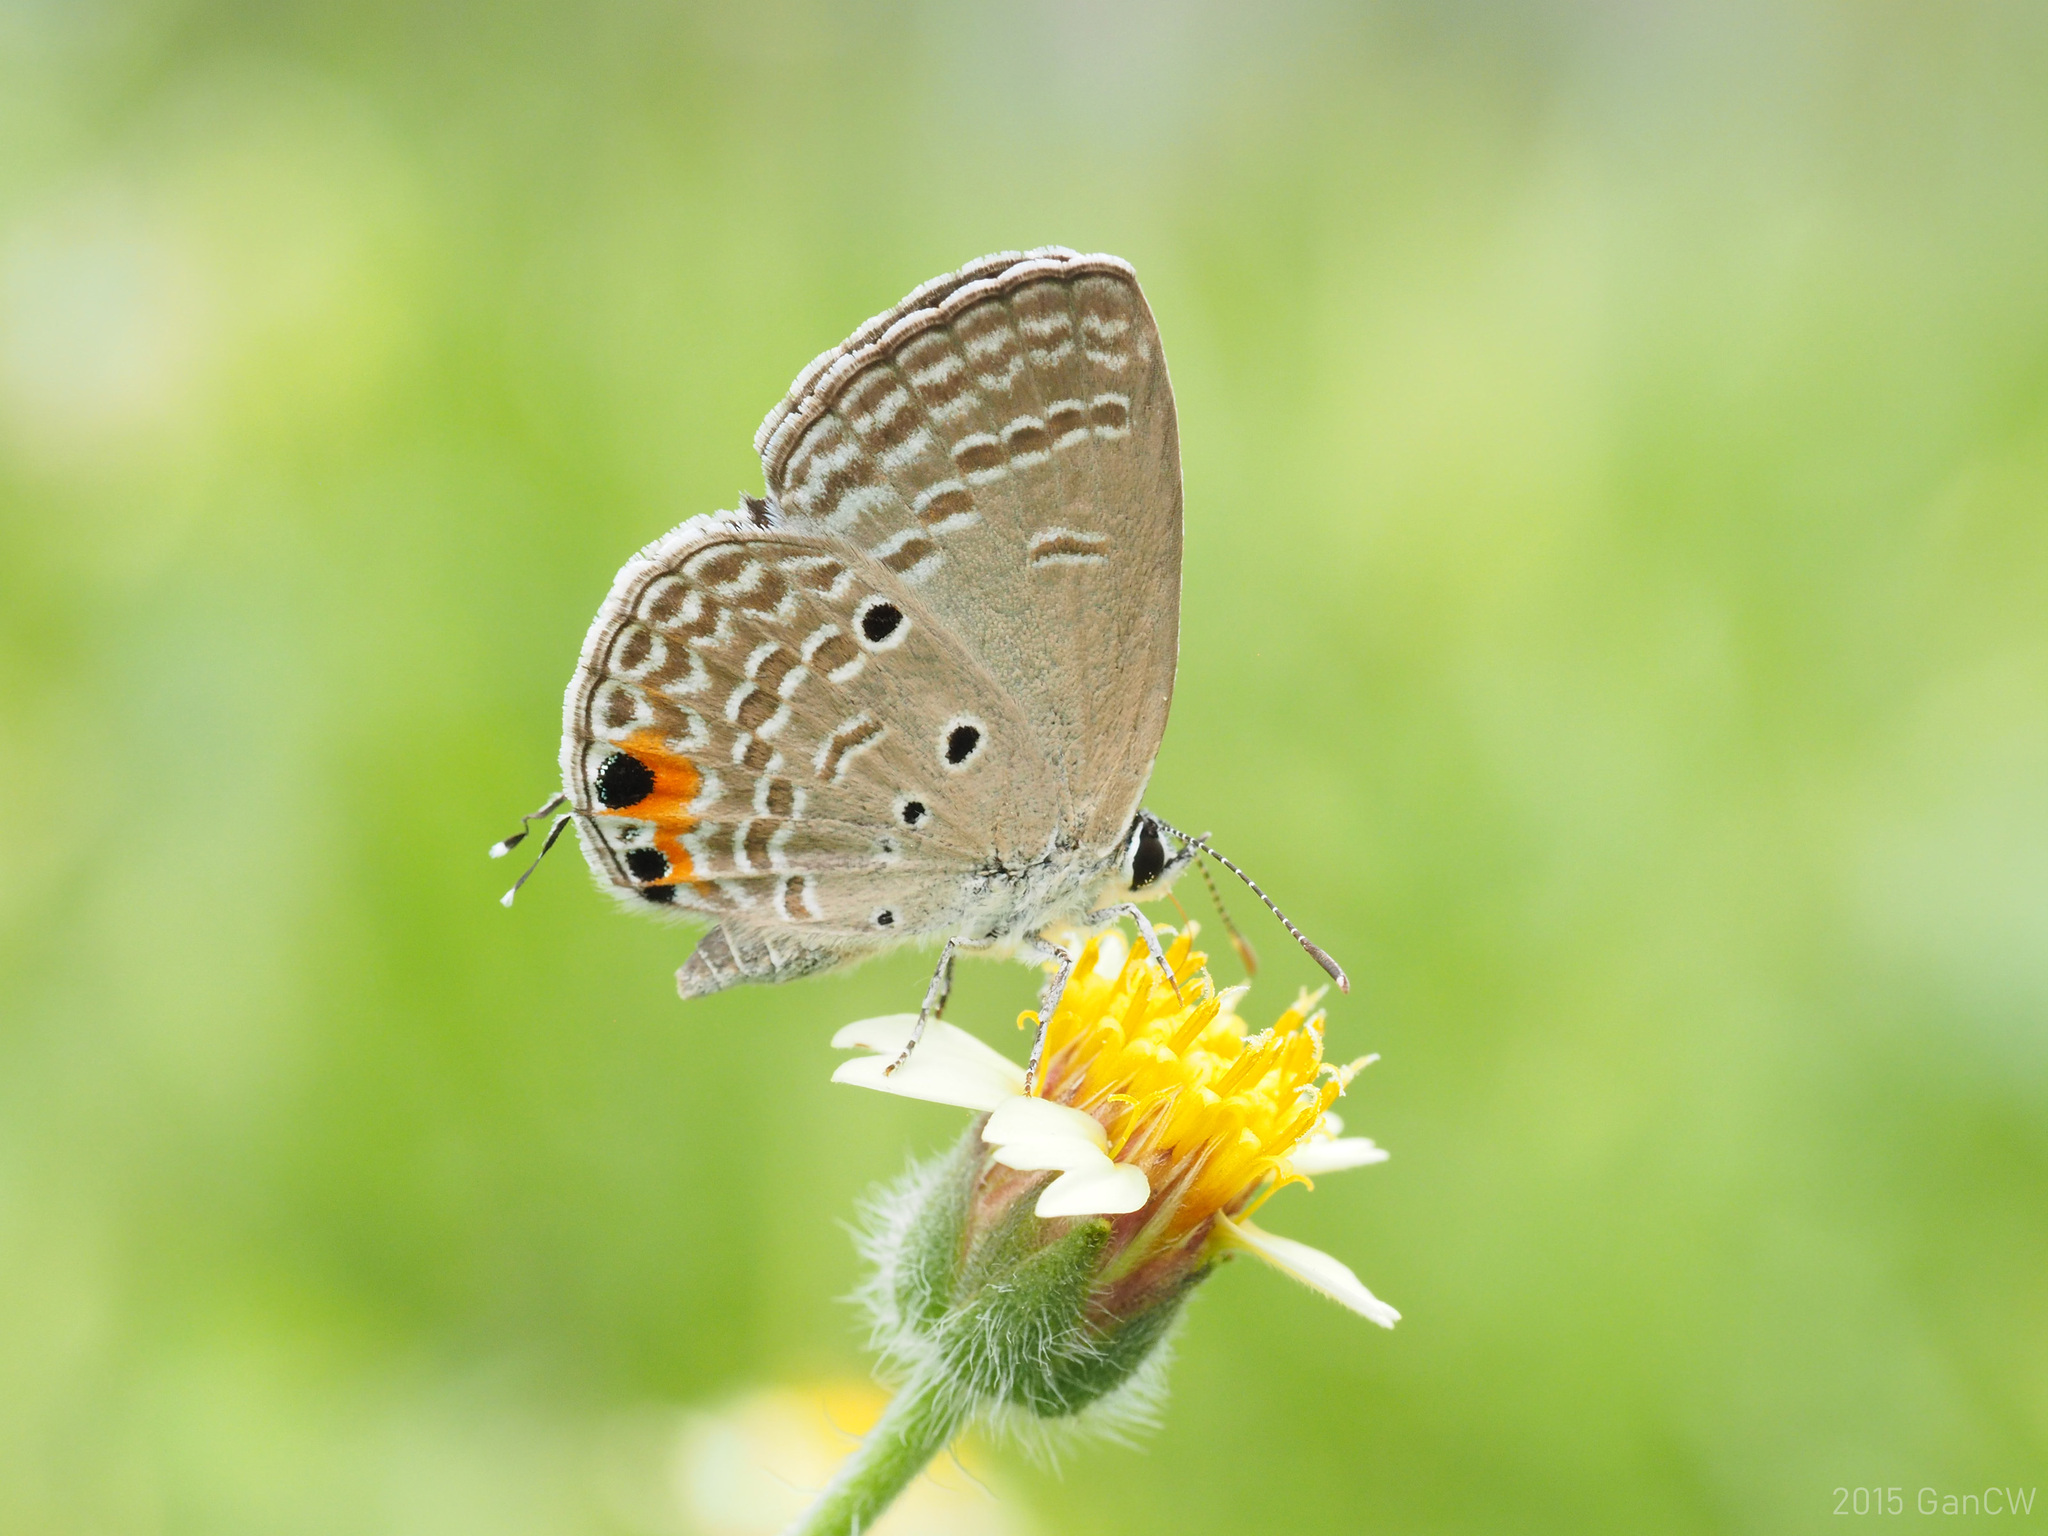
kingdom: Animalia
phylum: Arthropoda
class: Insecta
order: Lepidoptera
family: Lycaenidae
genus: Luthrodes
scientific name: Luthrodes pandava
